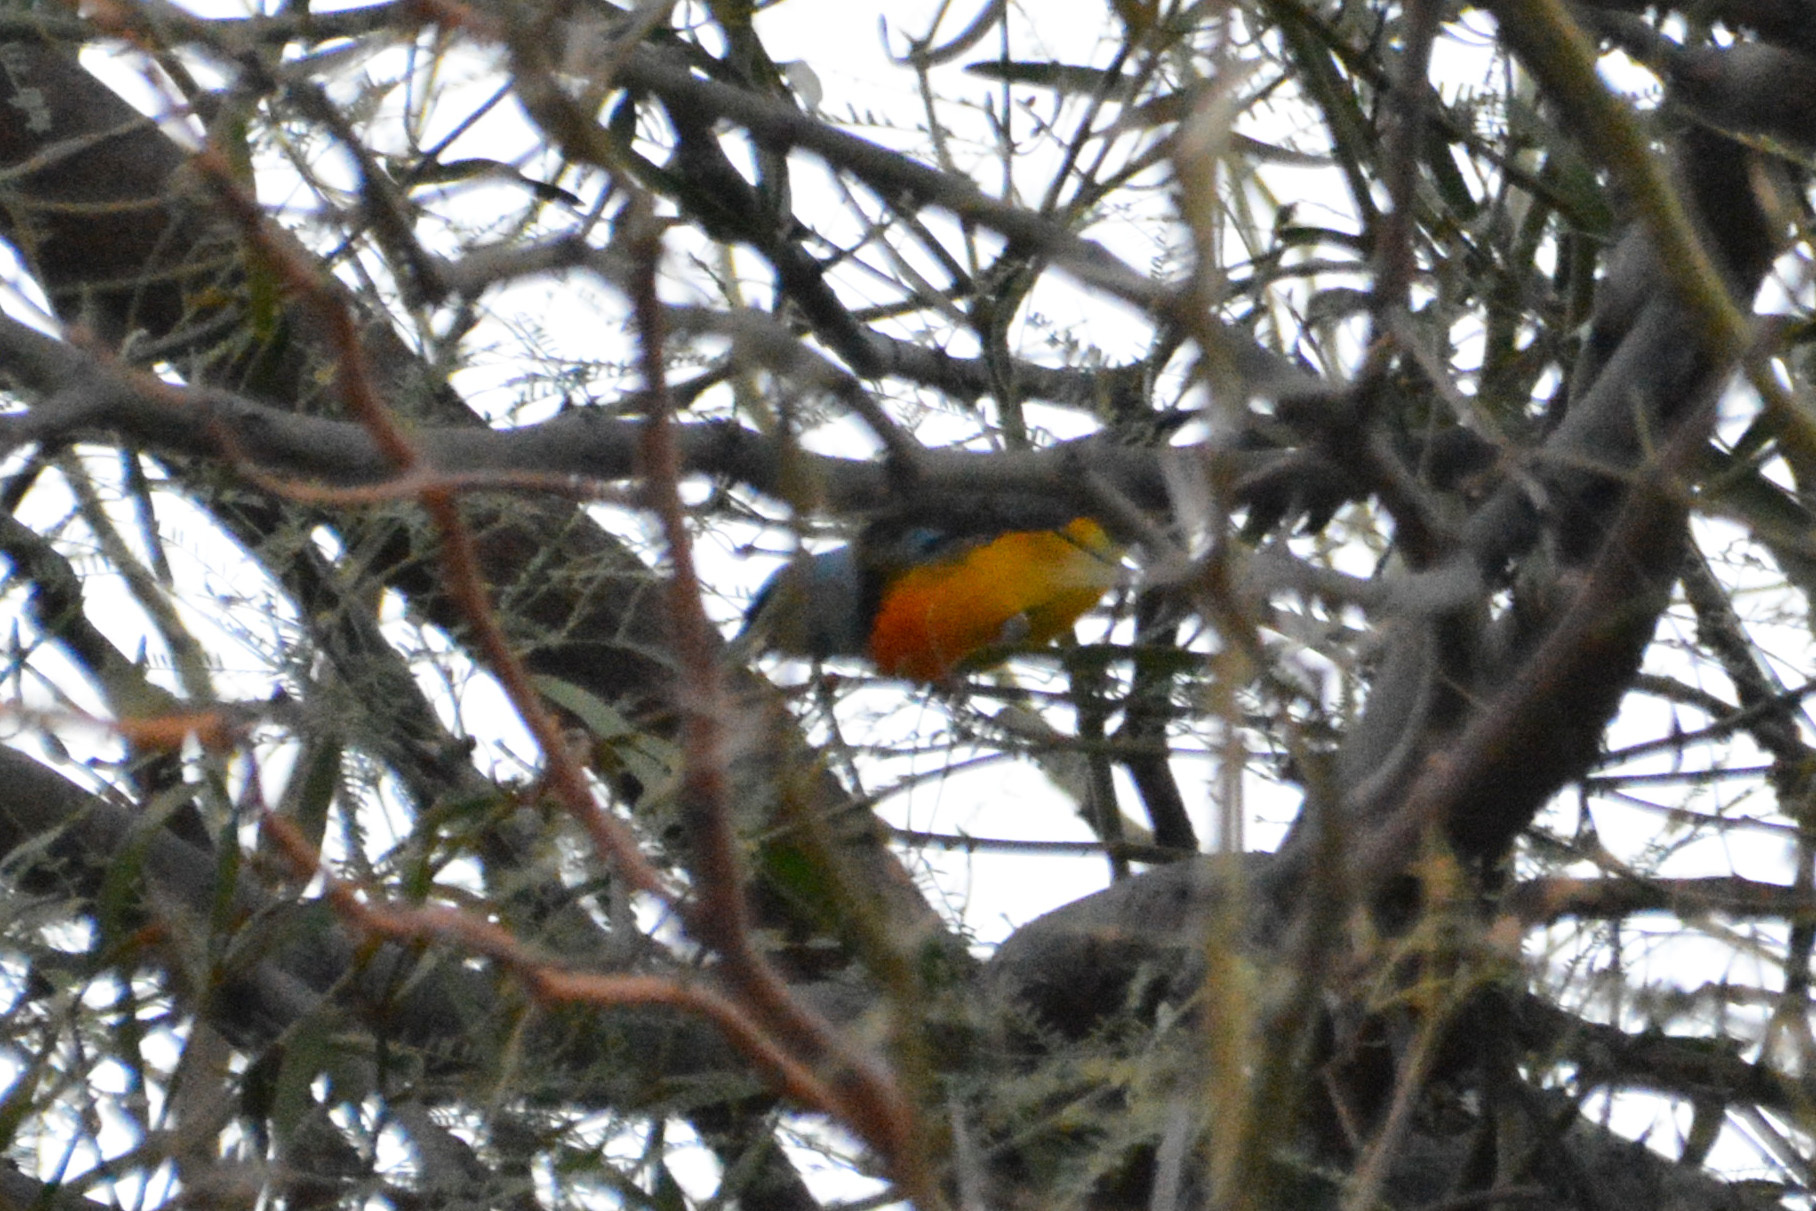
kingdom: Animalia
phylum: Chordata
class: Aves
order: Passeriformes
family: Thraupidae
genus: Rauenia
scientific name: Rauenia bonariensis
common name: Blue-and-yellow tanager
